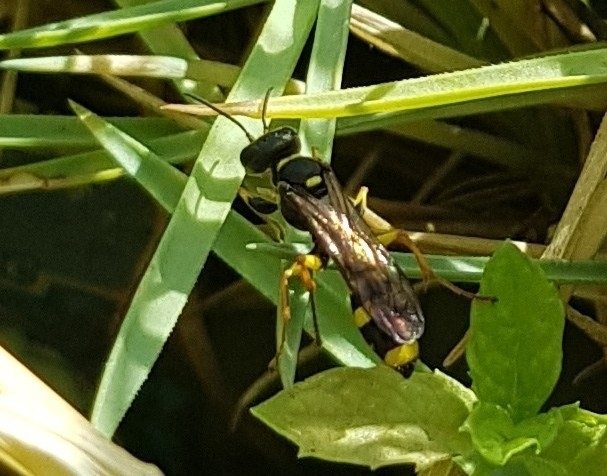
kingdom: Animalia
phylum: Arthropoda
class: Insecta
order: Hymenoptera
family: Crabronidae
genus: Mellinus
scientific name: Mellinus arvensis
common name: Field digger wasp
